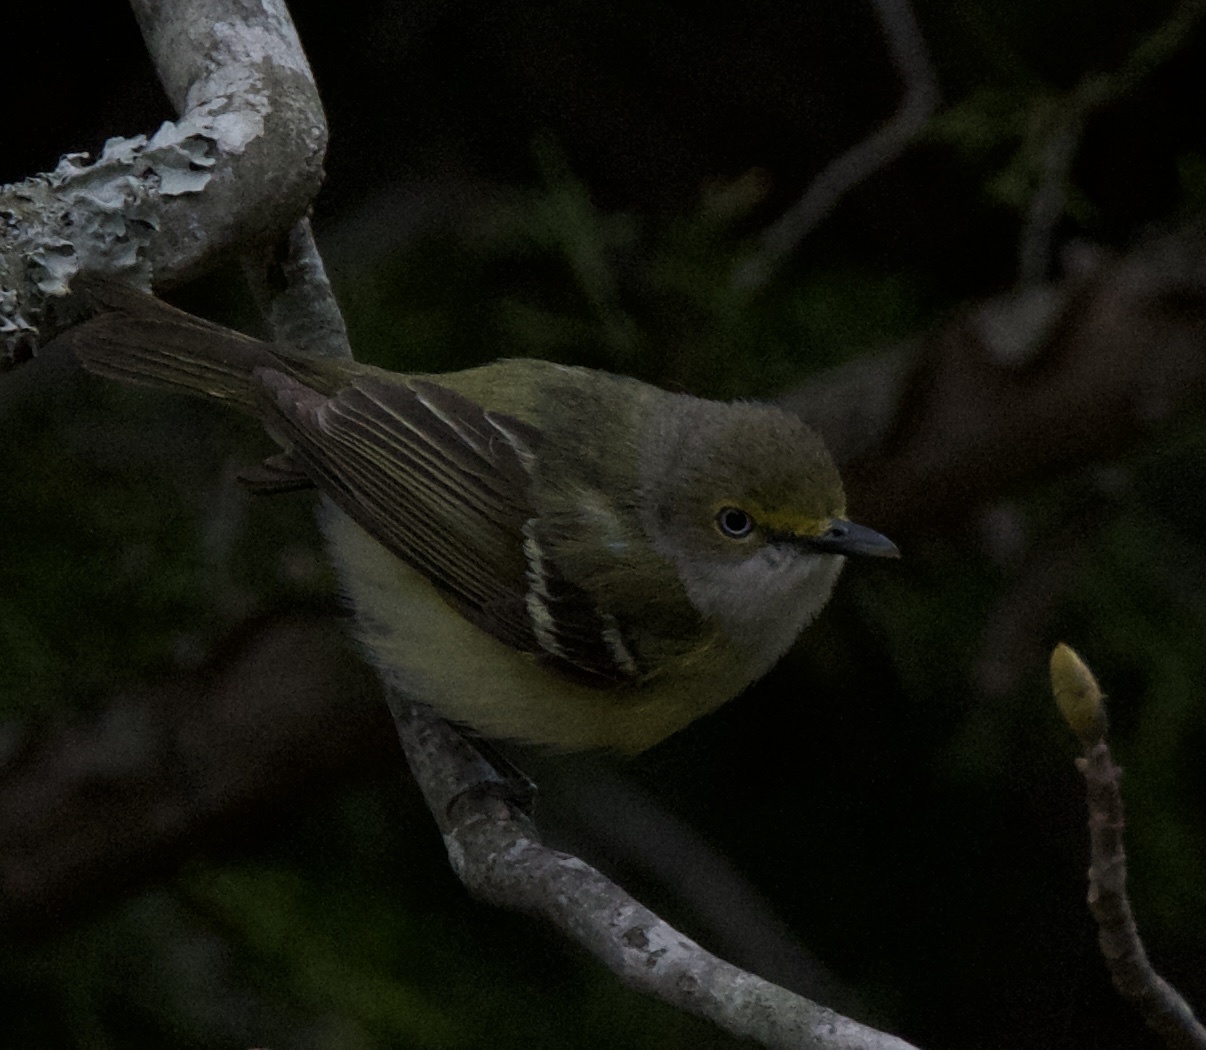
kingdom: Animalia
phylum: Chordata
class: Aves
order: Passeriformes
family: Vireonidae
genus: Vireo
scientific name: Vireo griseus
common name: White-eyed vireo
